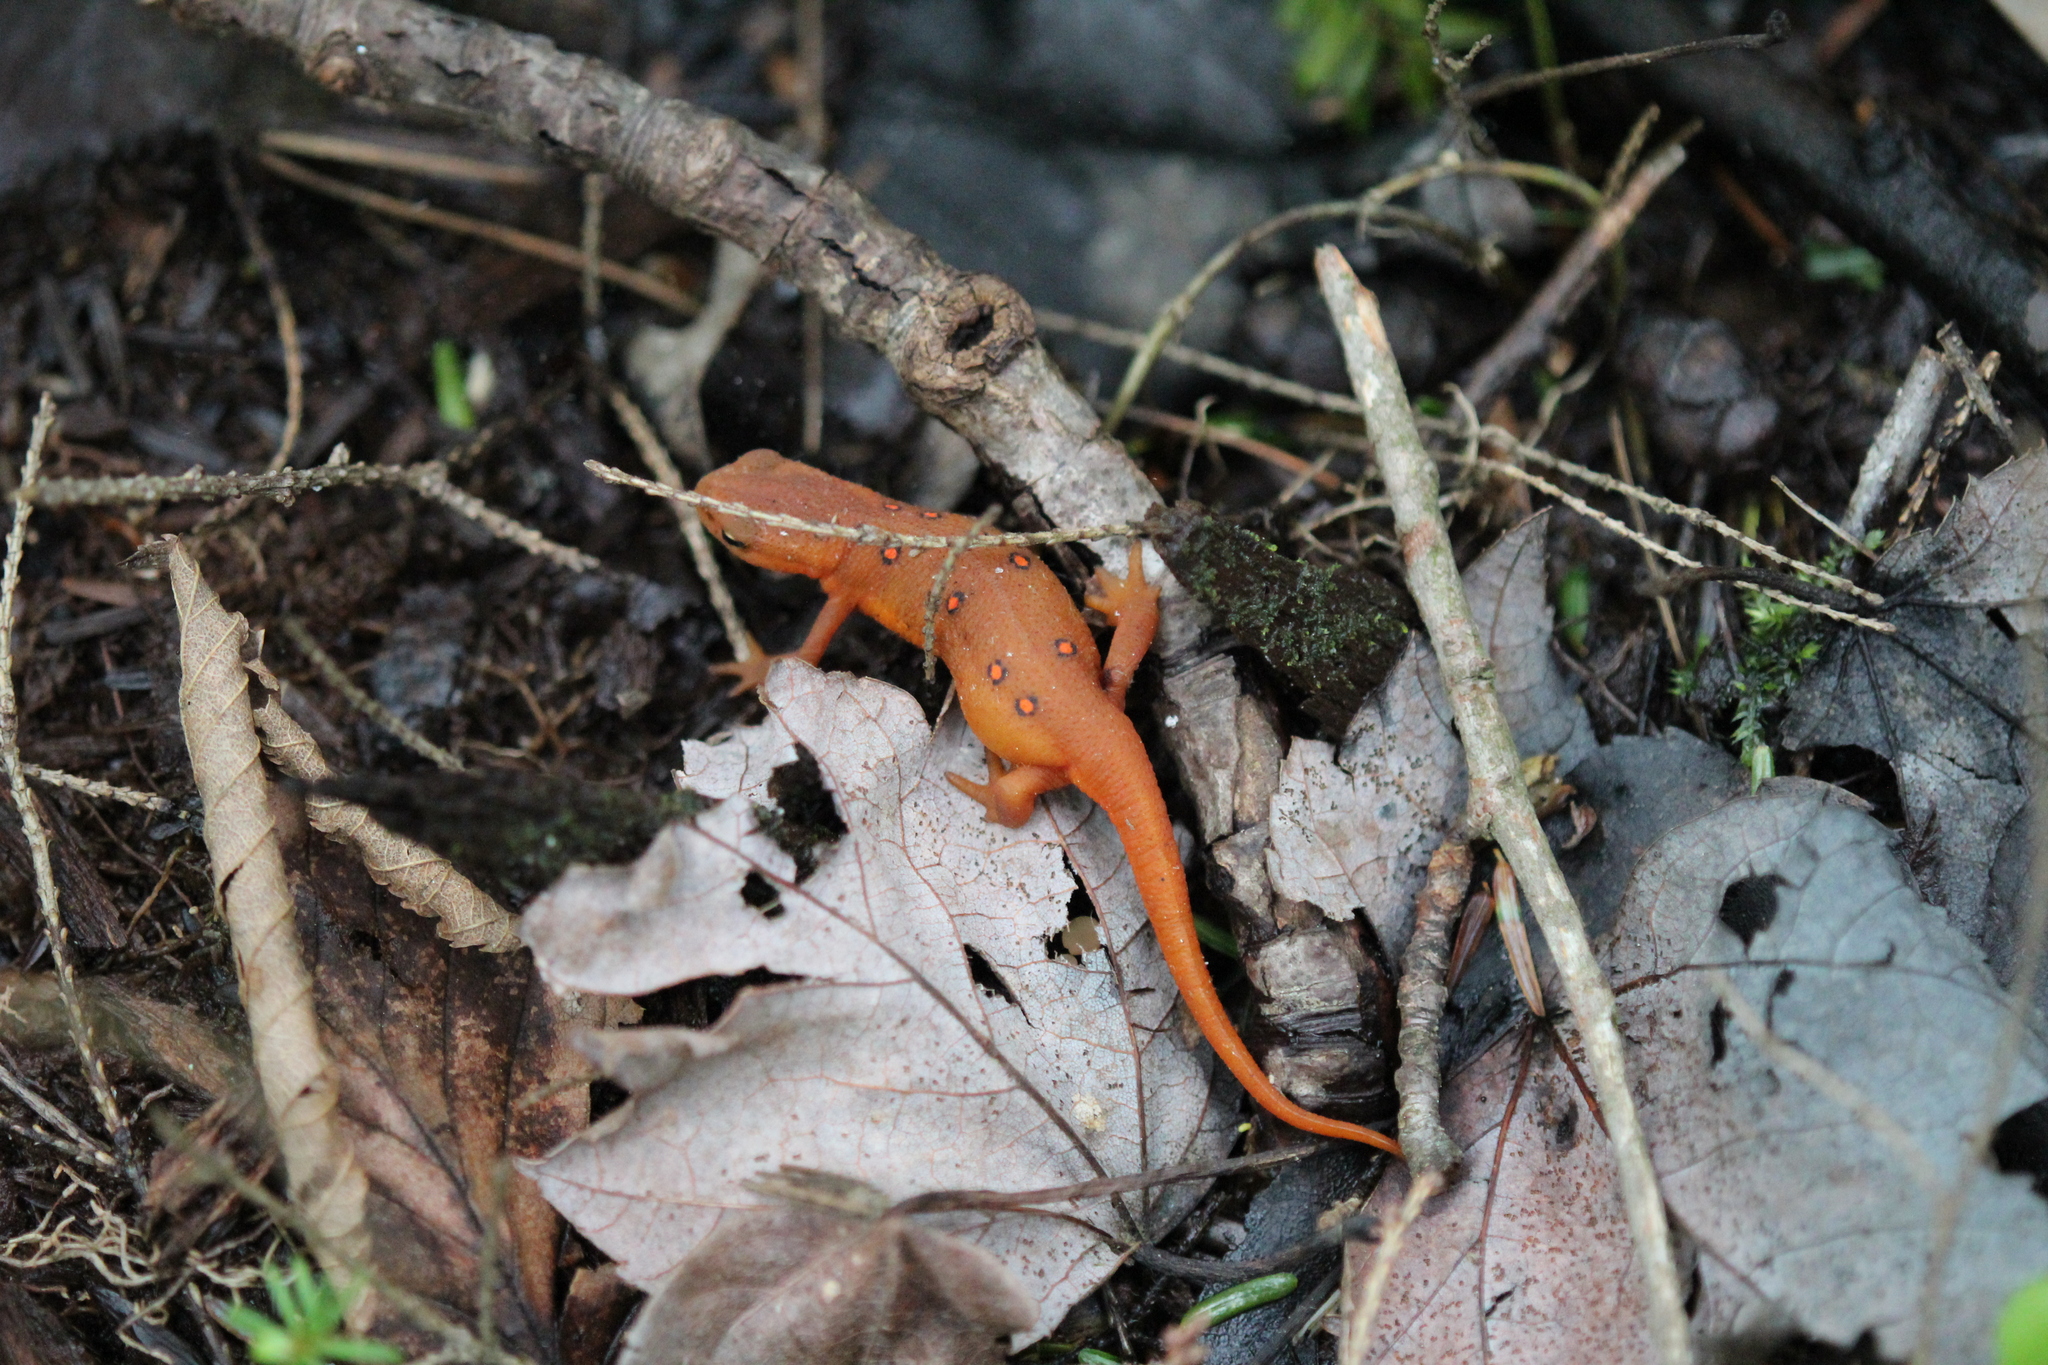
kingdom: Animalia
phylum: Chordata
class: Amphibia
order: Caudata
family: Salamandridae
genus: Notophthalmus
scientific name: Notophthalmus viridescens
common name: Eastern newt
